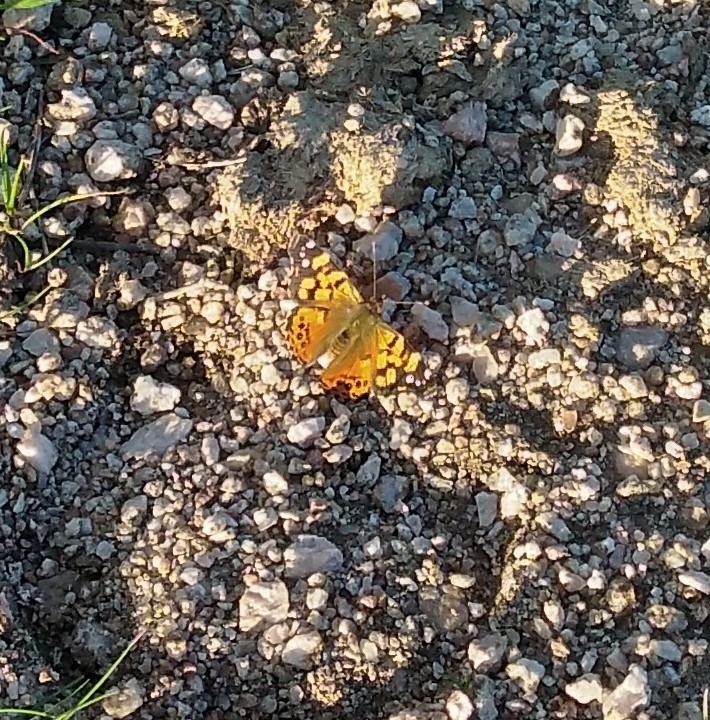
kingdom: Animalia
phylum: Arthropoda
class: Insecta
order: Lepidoptera
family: Nymphalidae
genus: Vanessa
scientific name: Vanessa carye
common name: Subtropical lady
